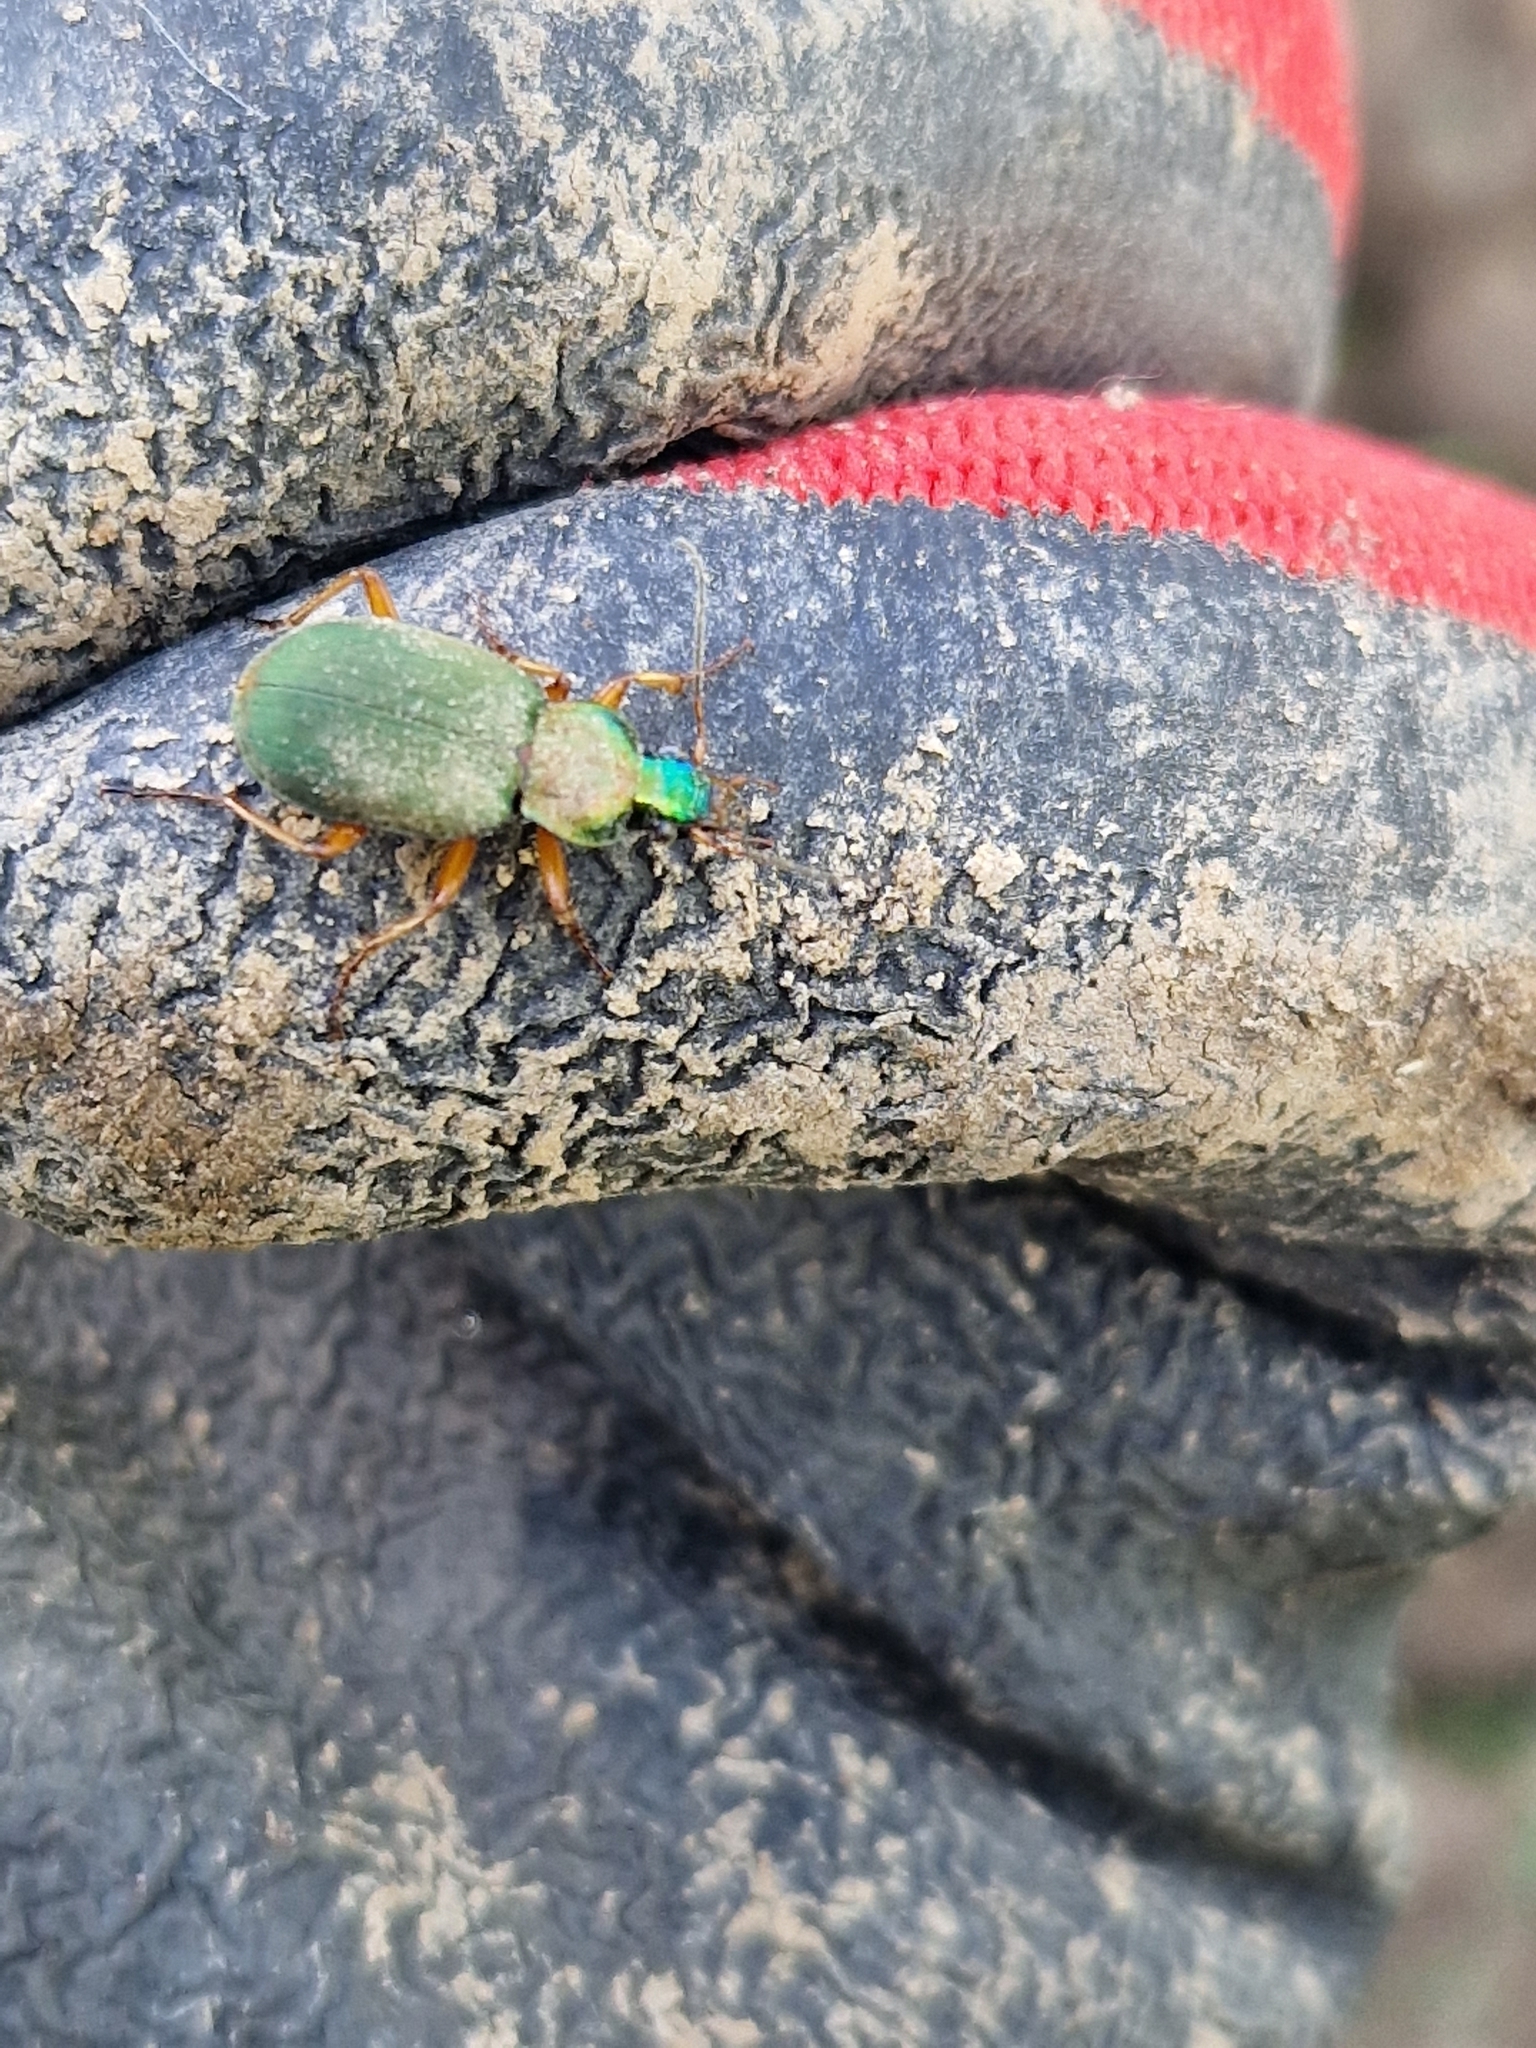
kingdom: Animalia
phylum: Arthropoda
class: Insecta
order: Coleoptera
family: Carabidae
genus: Chlaeniellus
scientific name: Chlaeniellus
